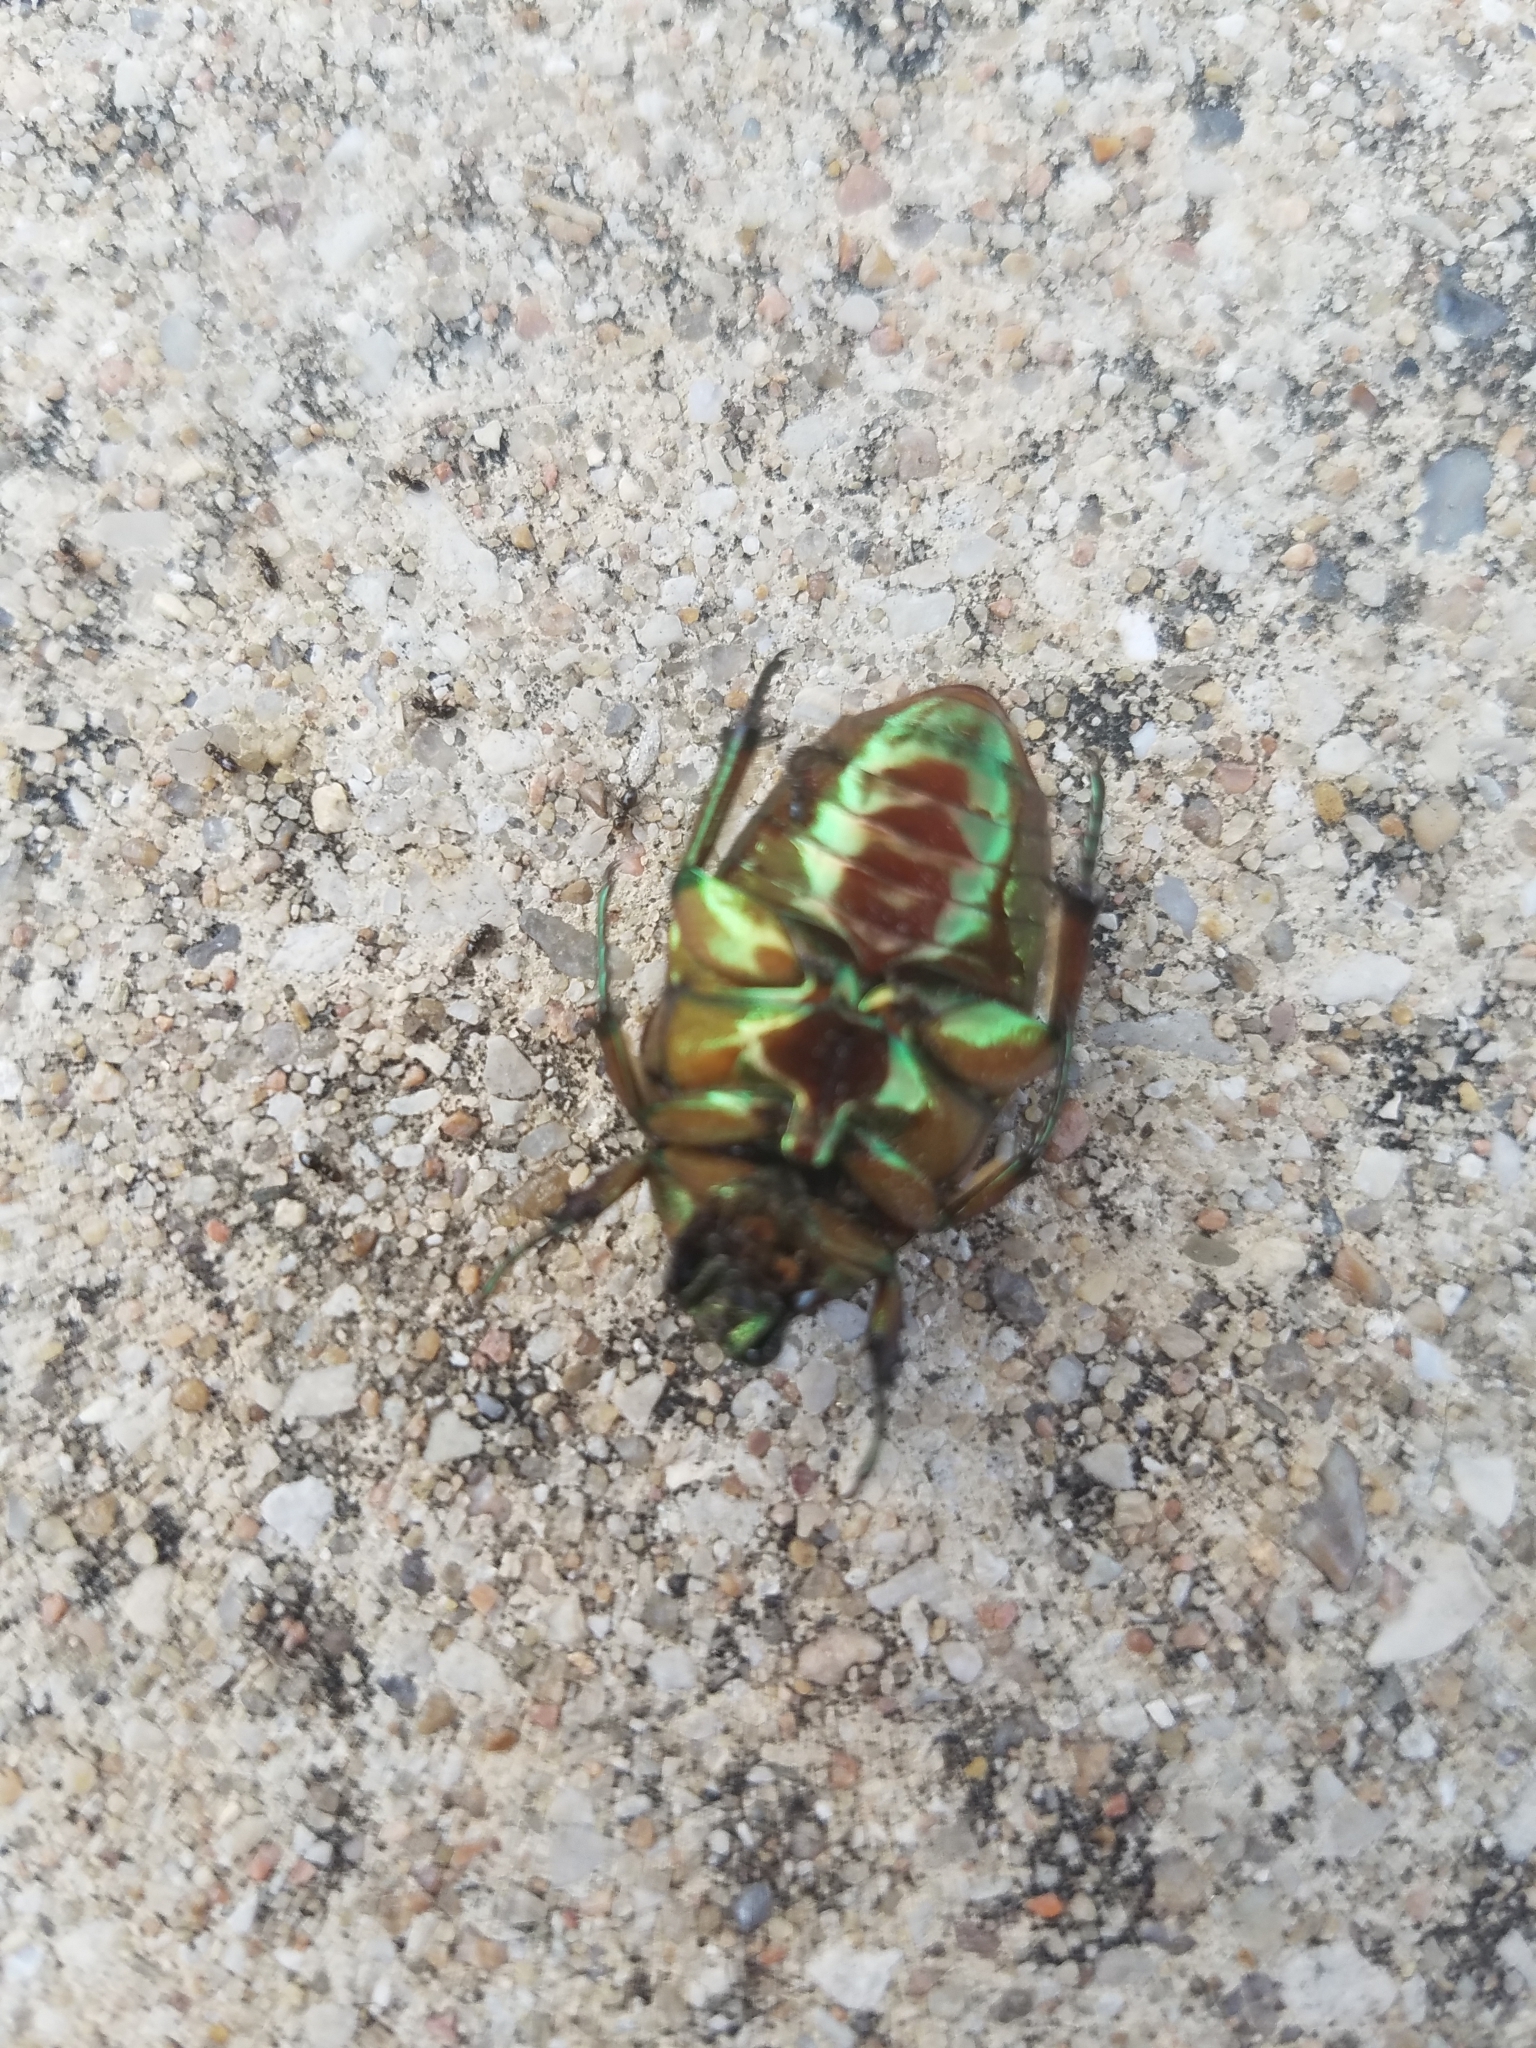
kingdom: Animalia
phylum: Arthropoda
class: Insecta
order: Coleoptera
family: Scarabaeidae
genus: Cotinis
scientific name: Cotinis nitida
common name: Common green june beetle
